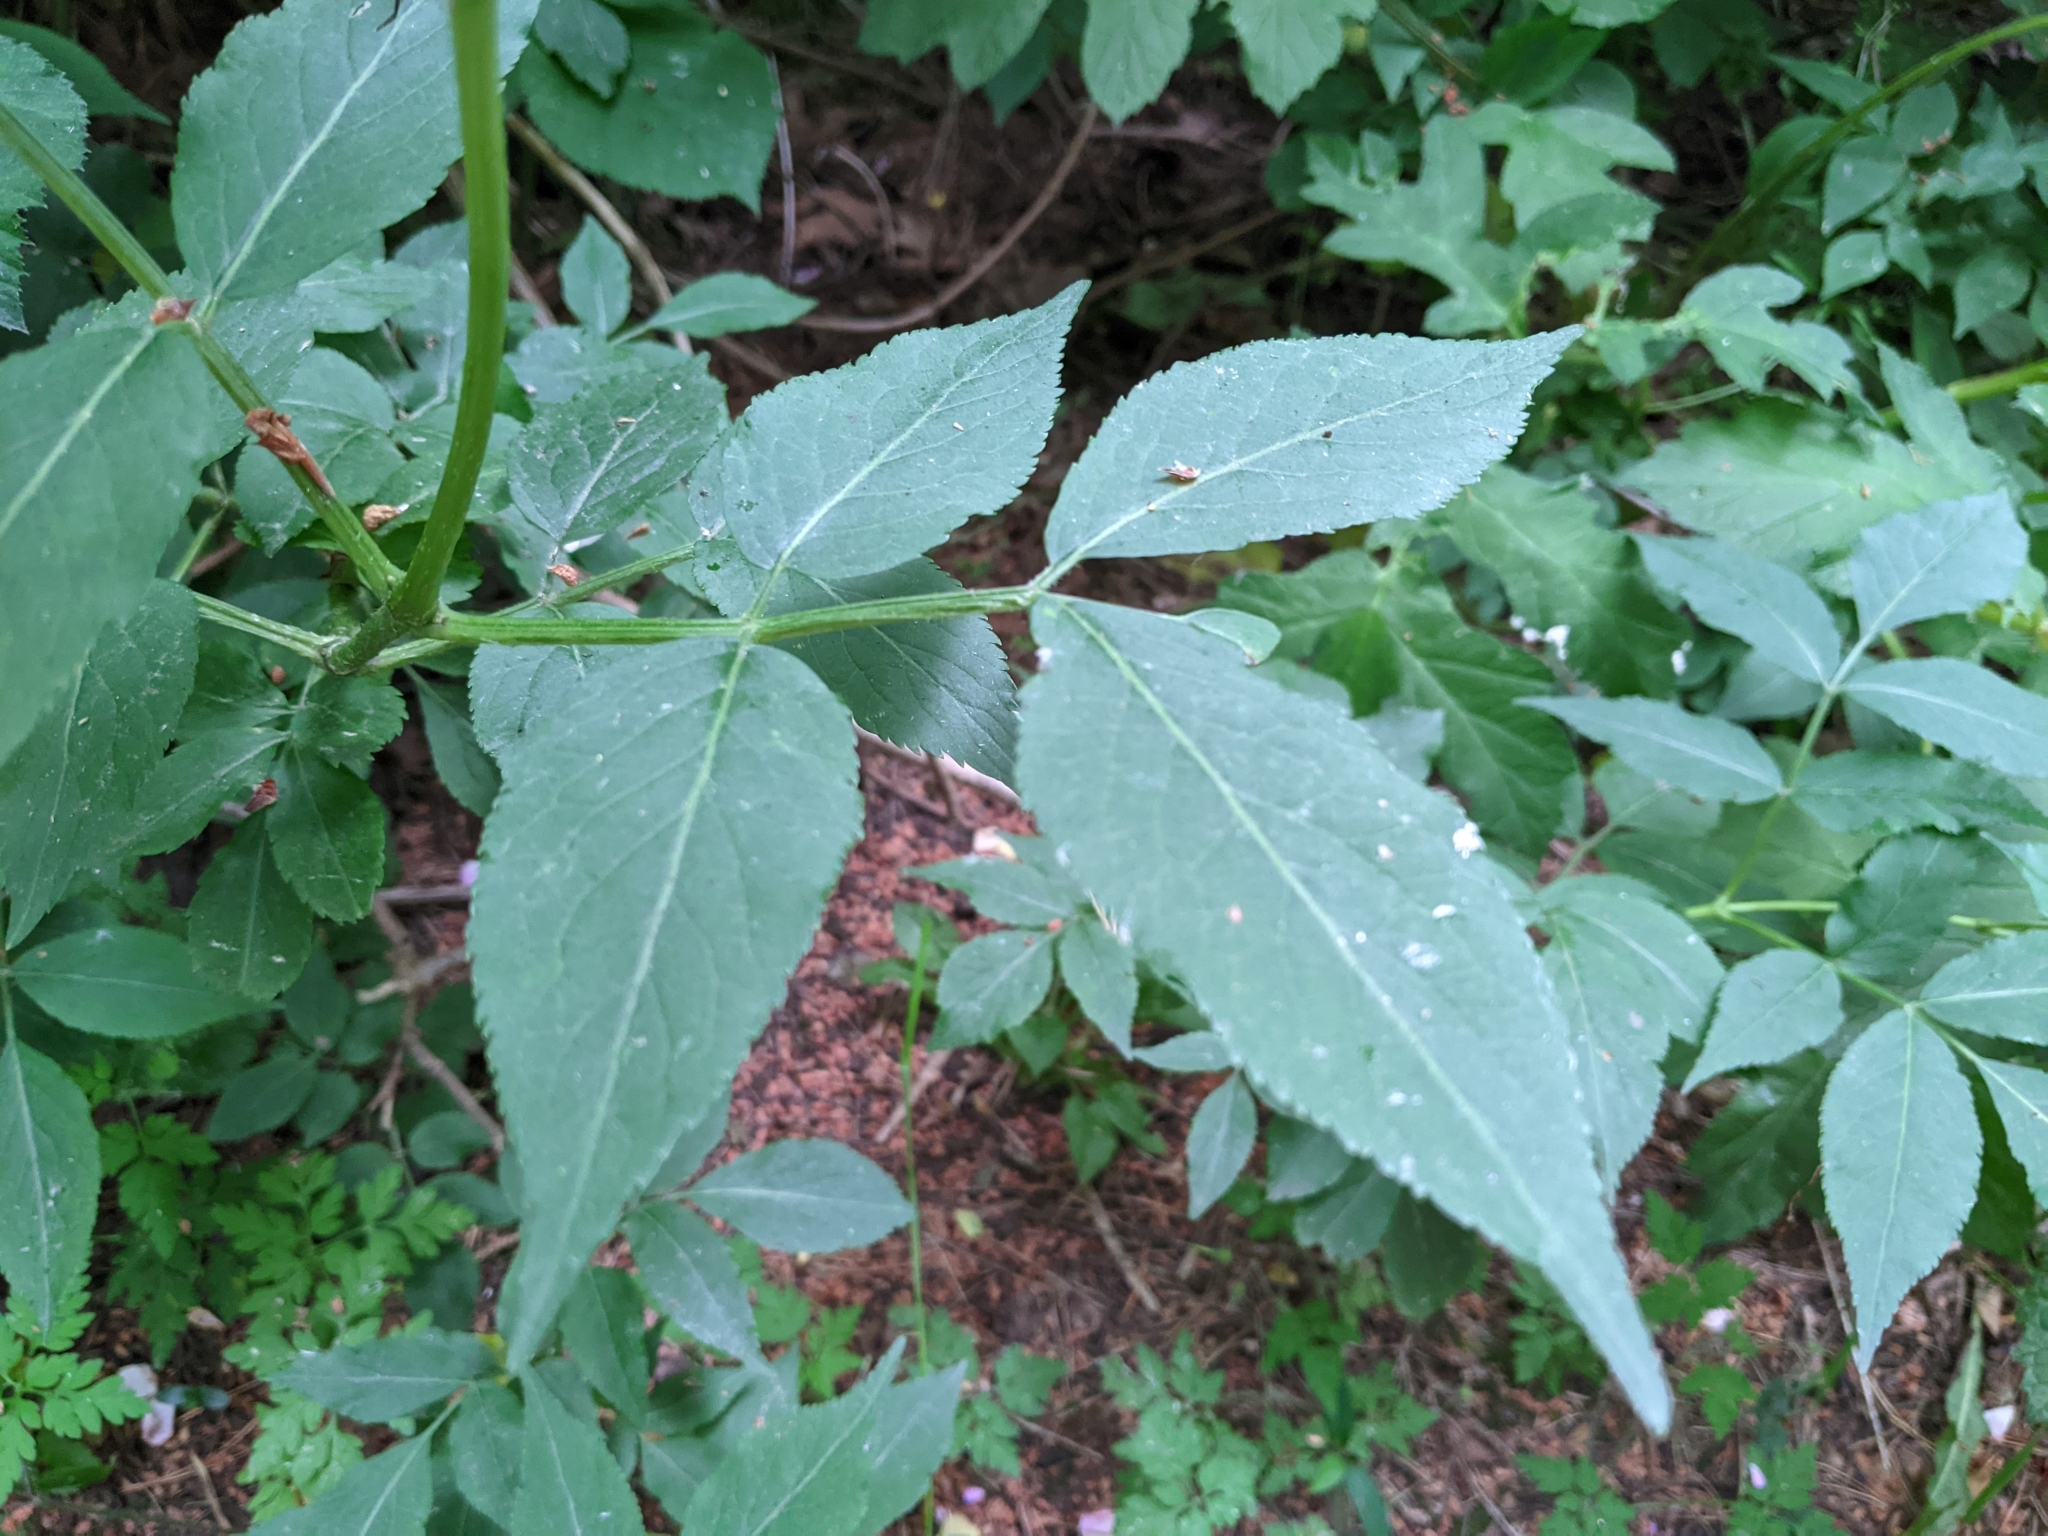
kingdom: Plantae
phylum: Tracheophyta
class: Magnoliopsida
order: Dipsacales
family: Viburnaceae
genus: Sambucus
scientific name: Sambucus nigra
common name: Elder
